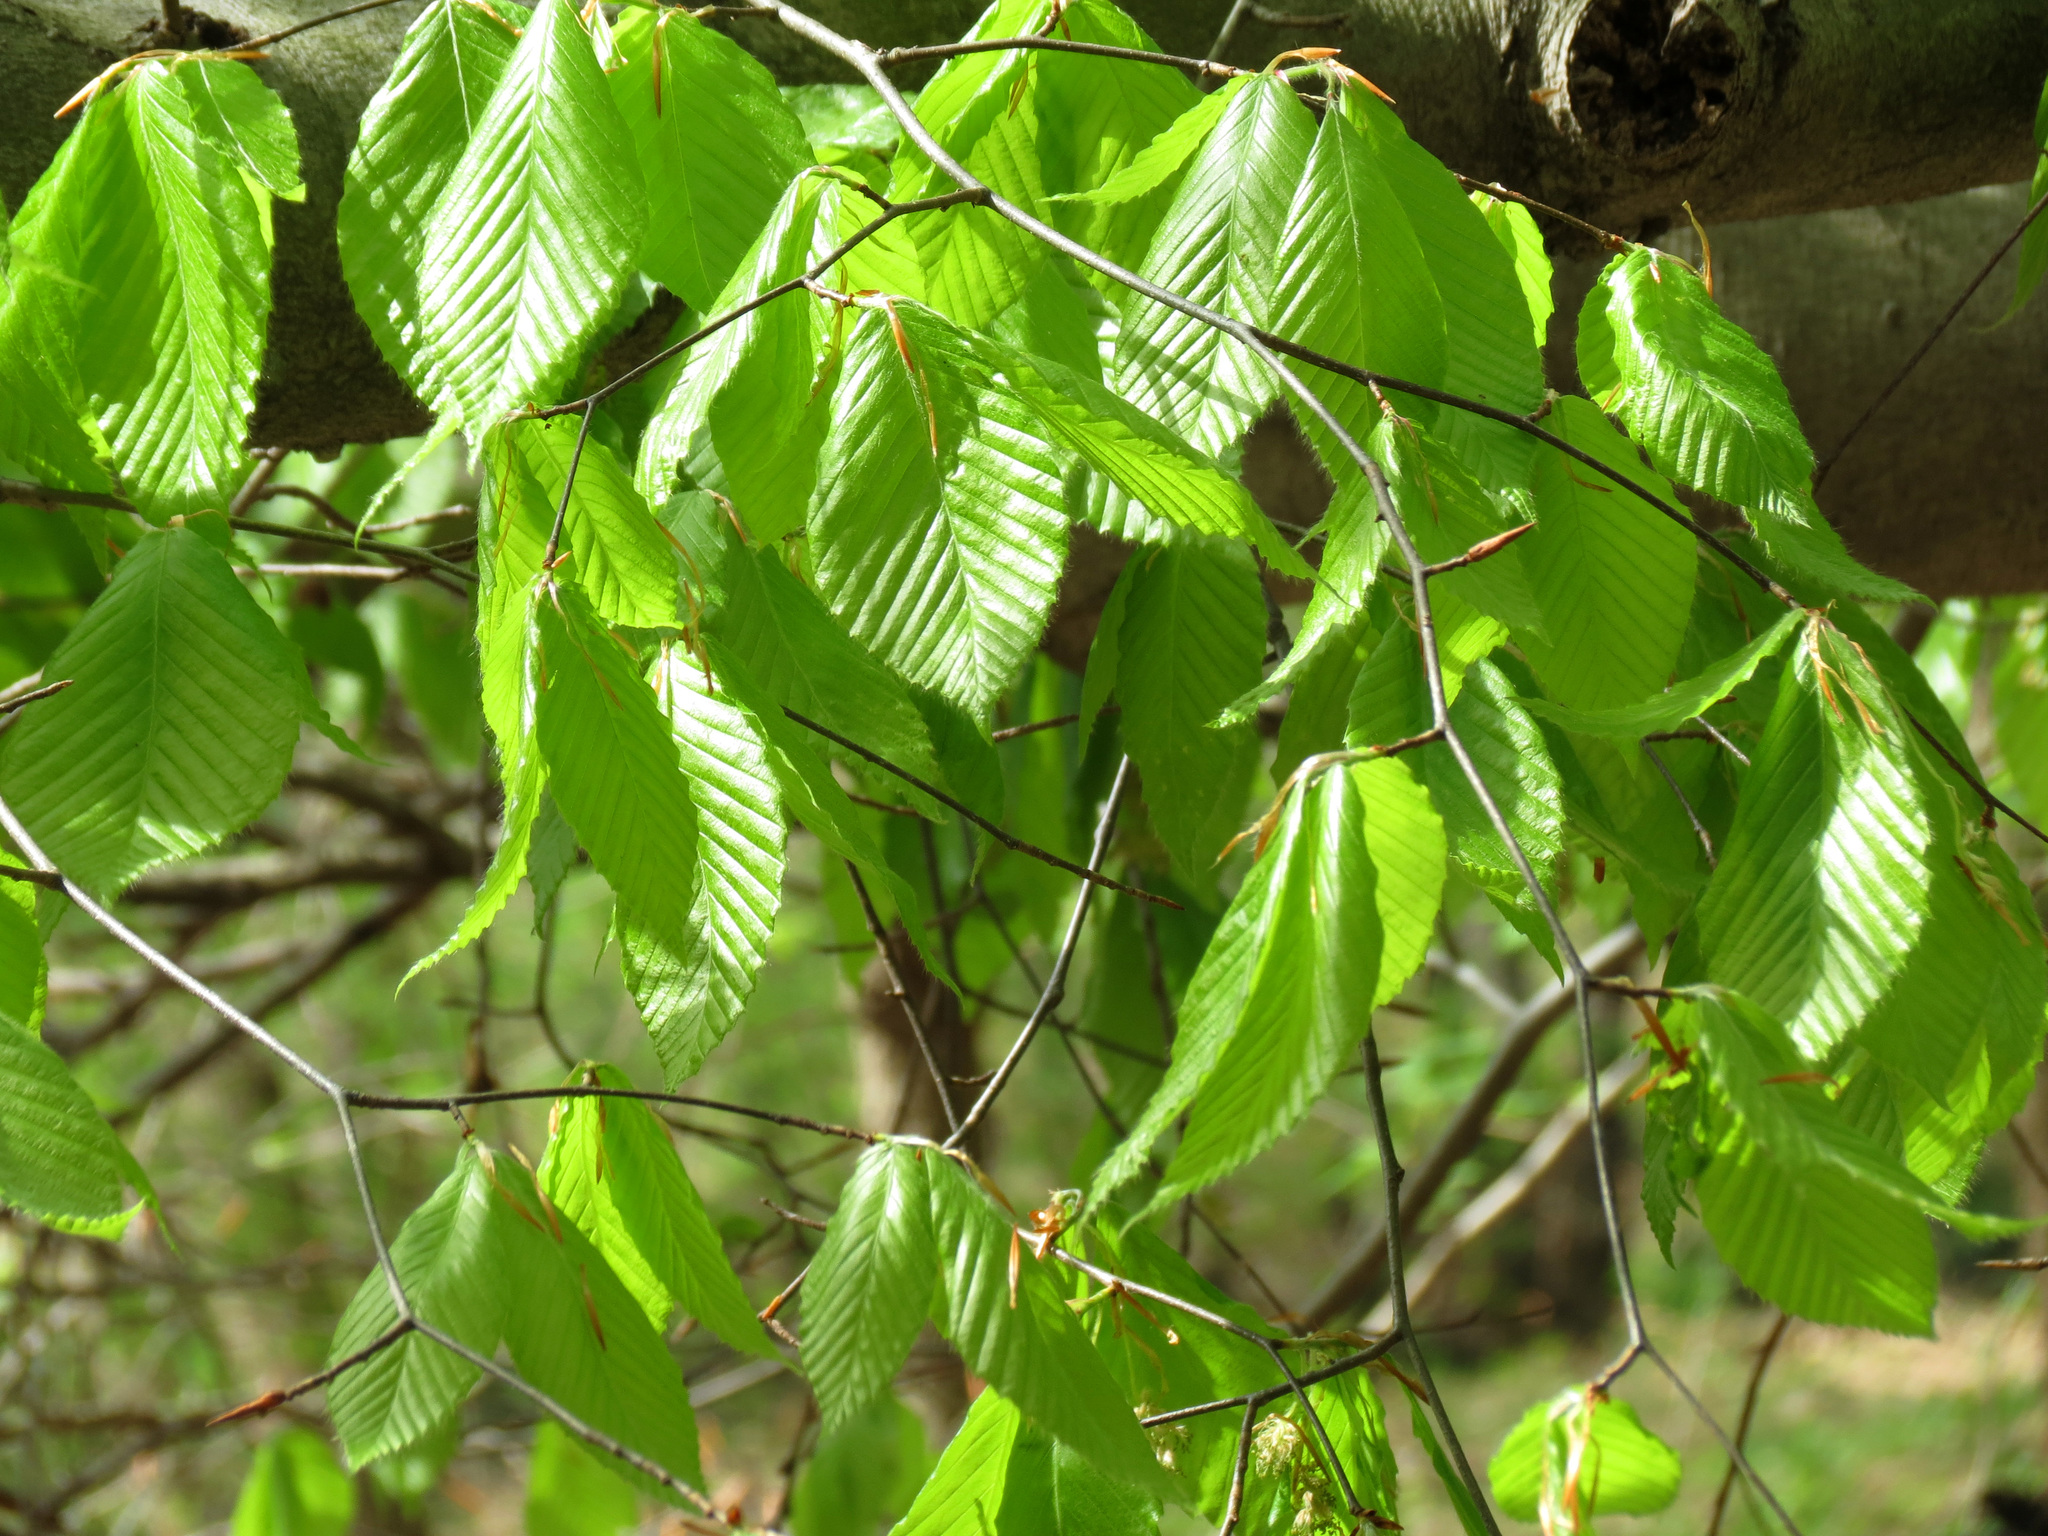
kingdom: Plantae
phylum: Tracheophyta
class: Magnoliopsida
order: Fagales
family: Fagaceae
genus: Fagus
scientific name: Fagus grandifolia
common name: American beech
